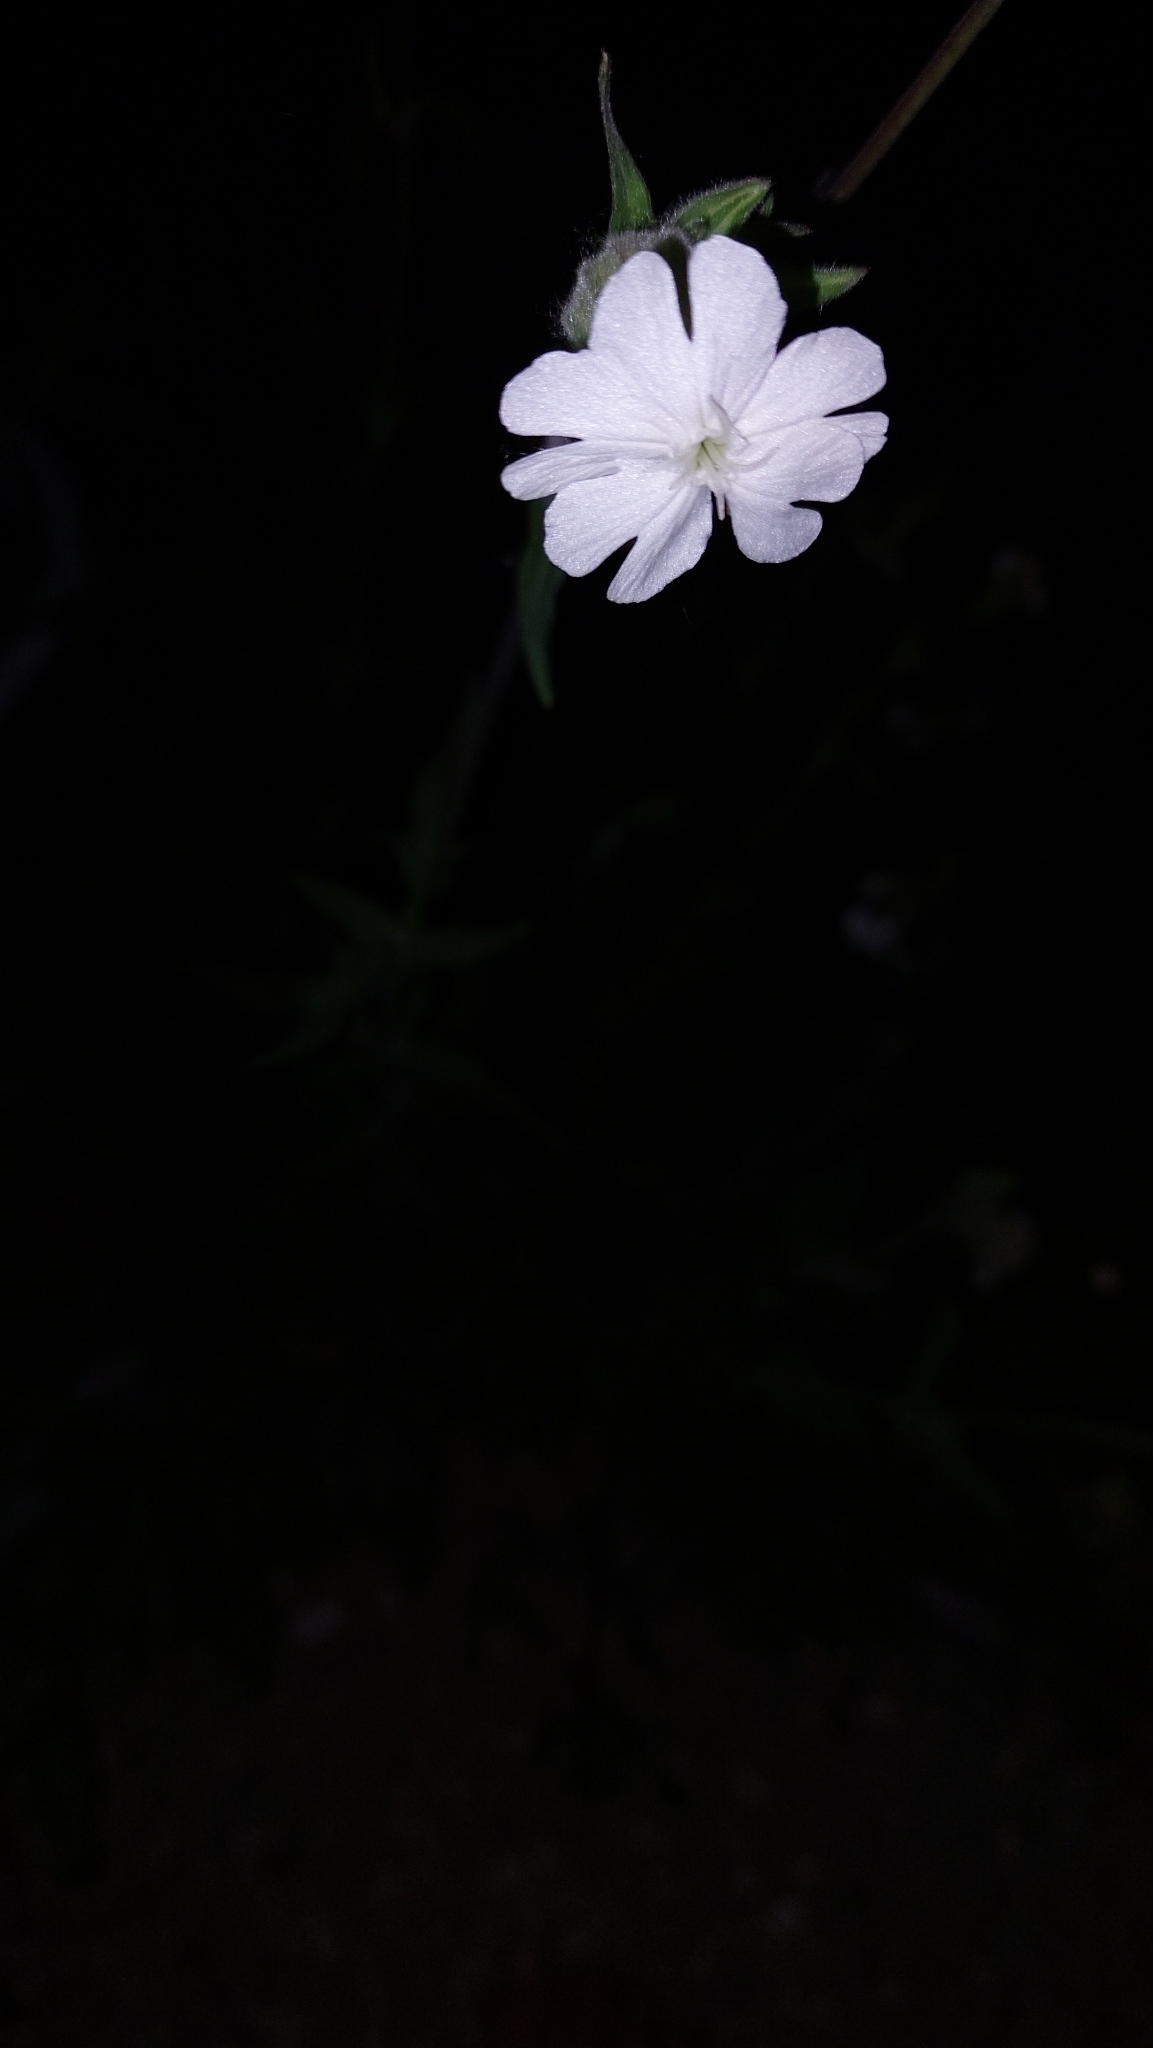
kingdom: Plantae
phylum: Tracheophyta
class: Magnoliopsida
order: Caryophyllales
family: Caryophyllaceae
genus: Silene
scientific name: Silene latifolia
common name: White campion
